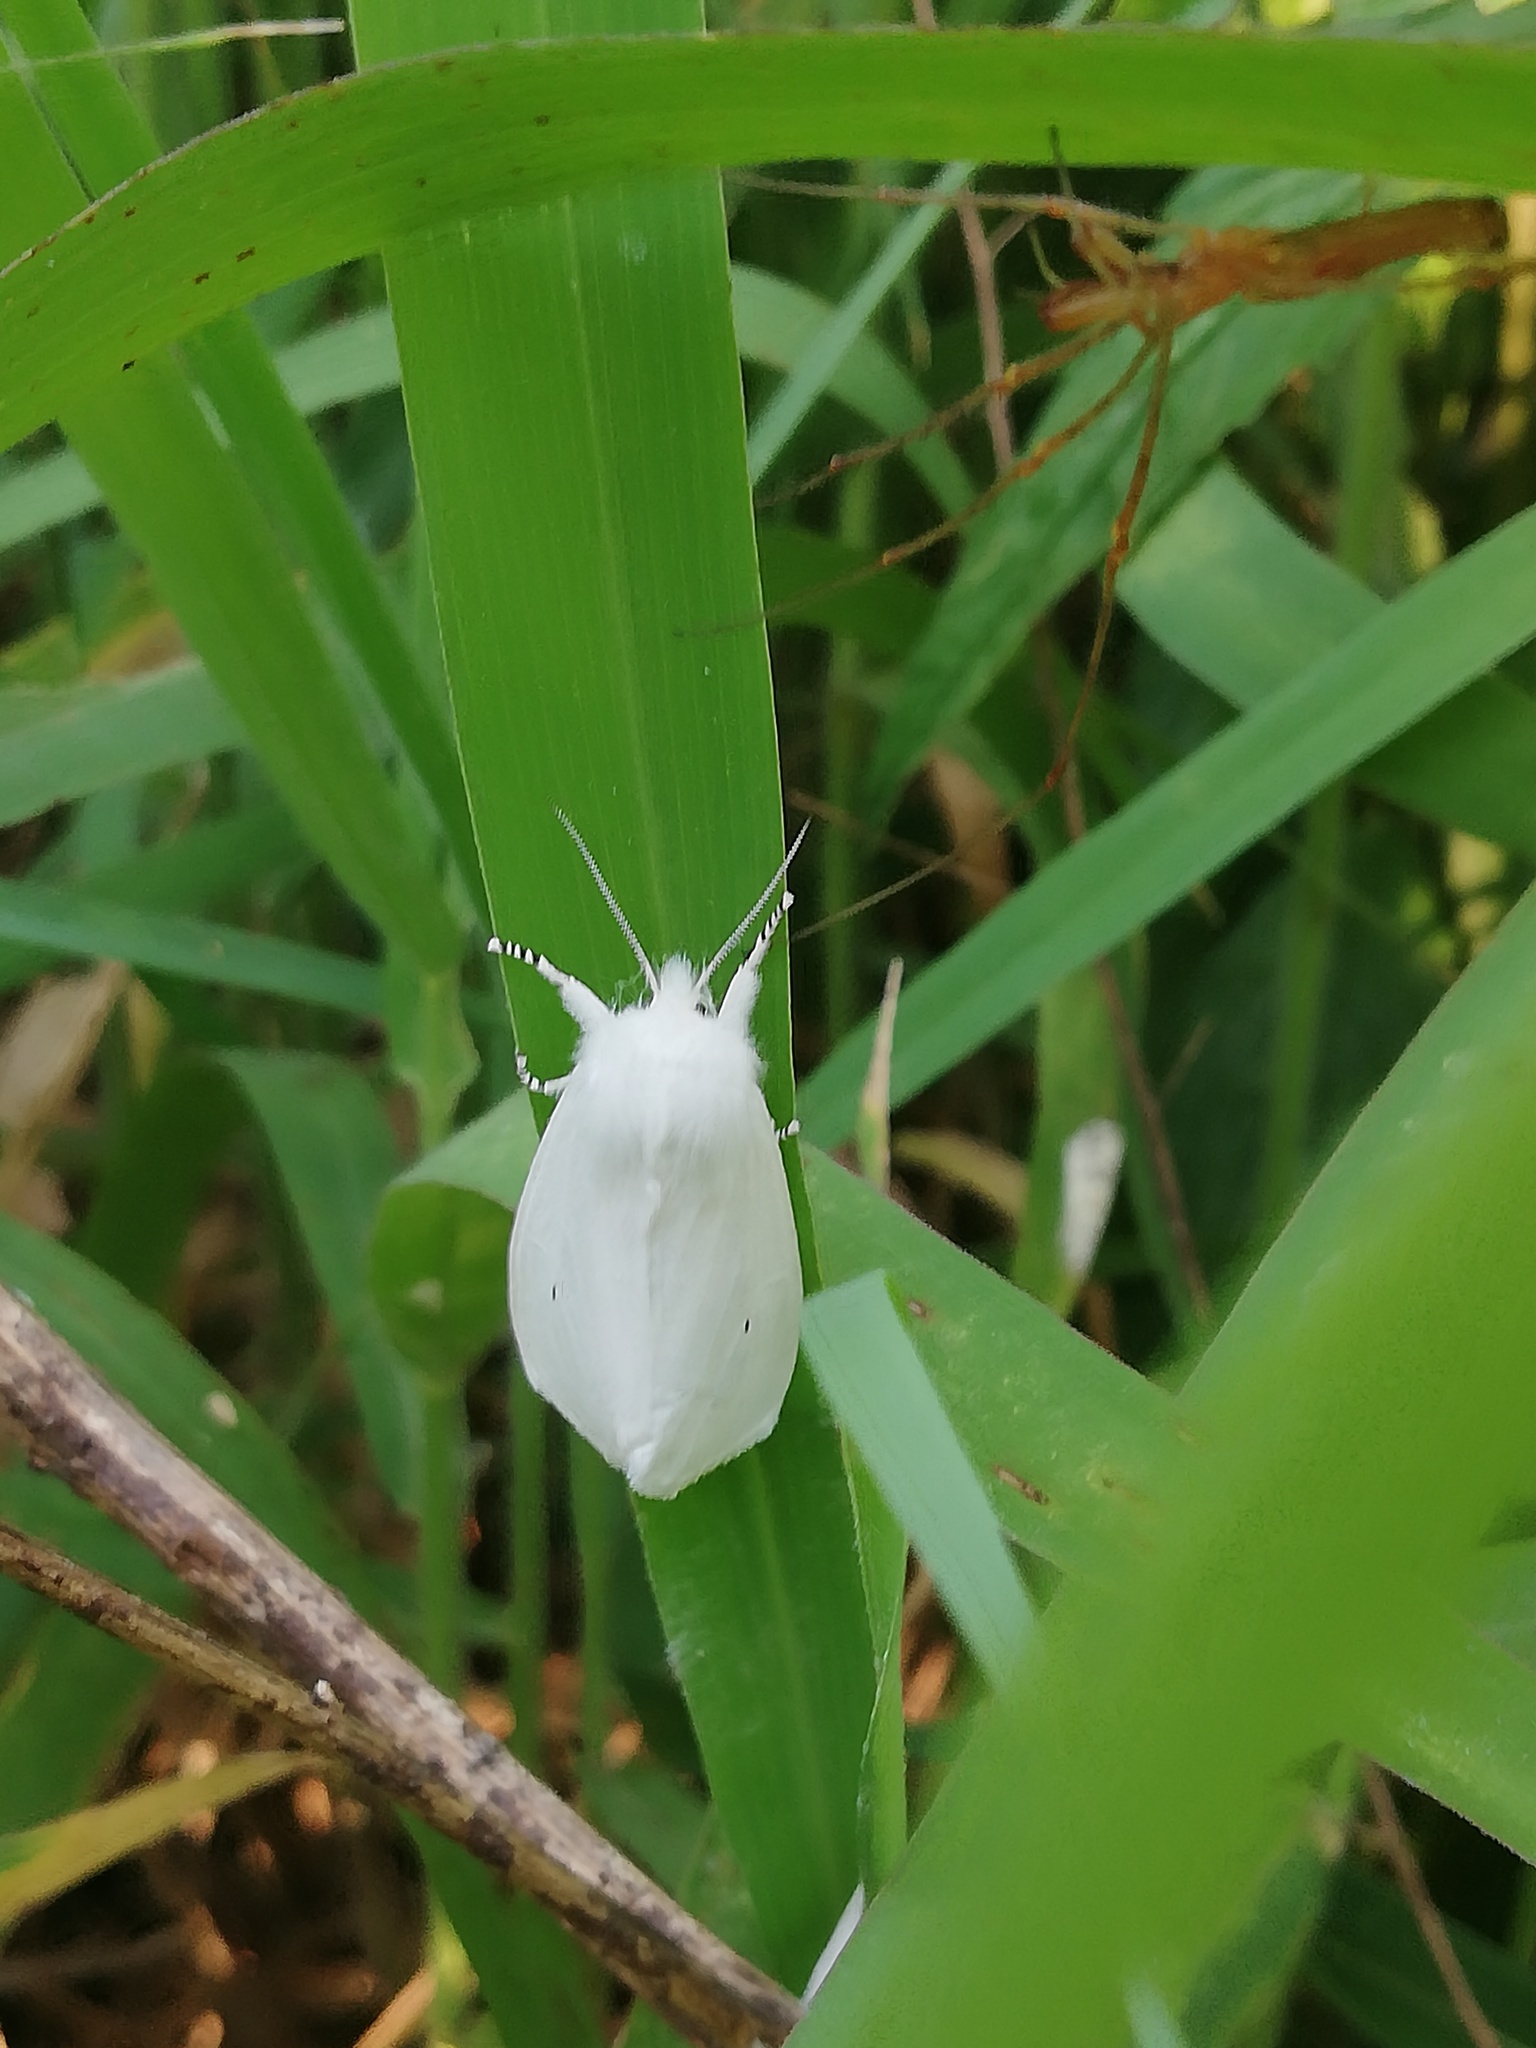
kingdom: Animalia
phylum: Arthropoda
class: Insecta
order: Lepidoptera
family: Erebidae
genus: Spilosoma
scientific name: Spilosoma virginica
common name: Virginia tiger moth
